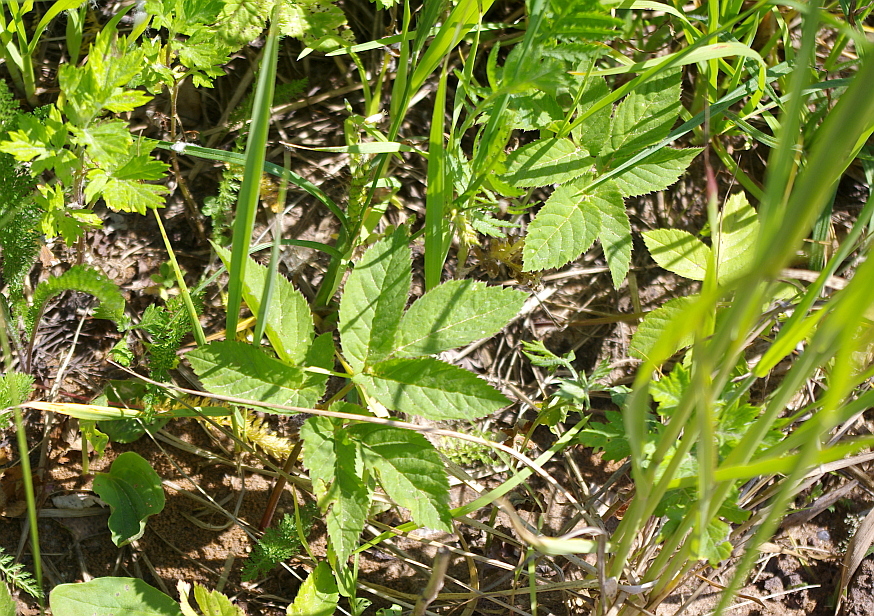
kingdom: Plantae
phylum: Tracheophyta
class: Magnoliopsida
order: Apiales
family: Apiaceae
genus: Aegopodium
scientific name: Aegopodium podagraria
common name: Ground-elder
